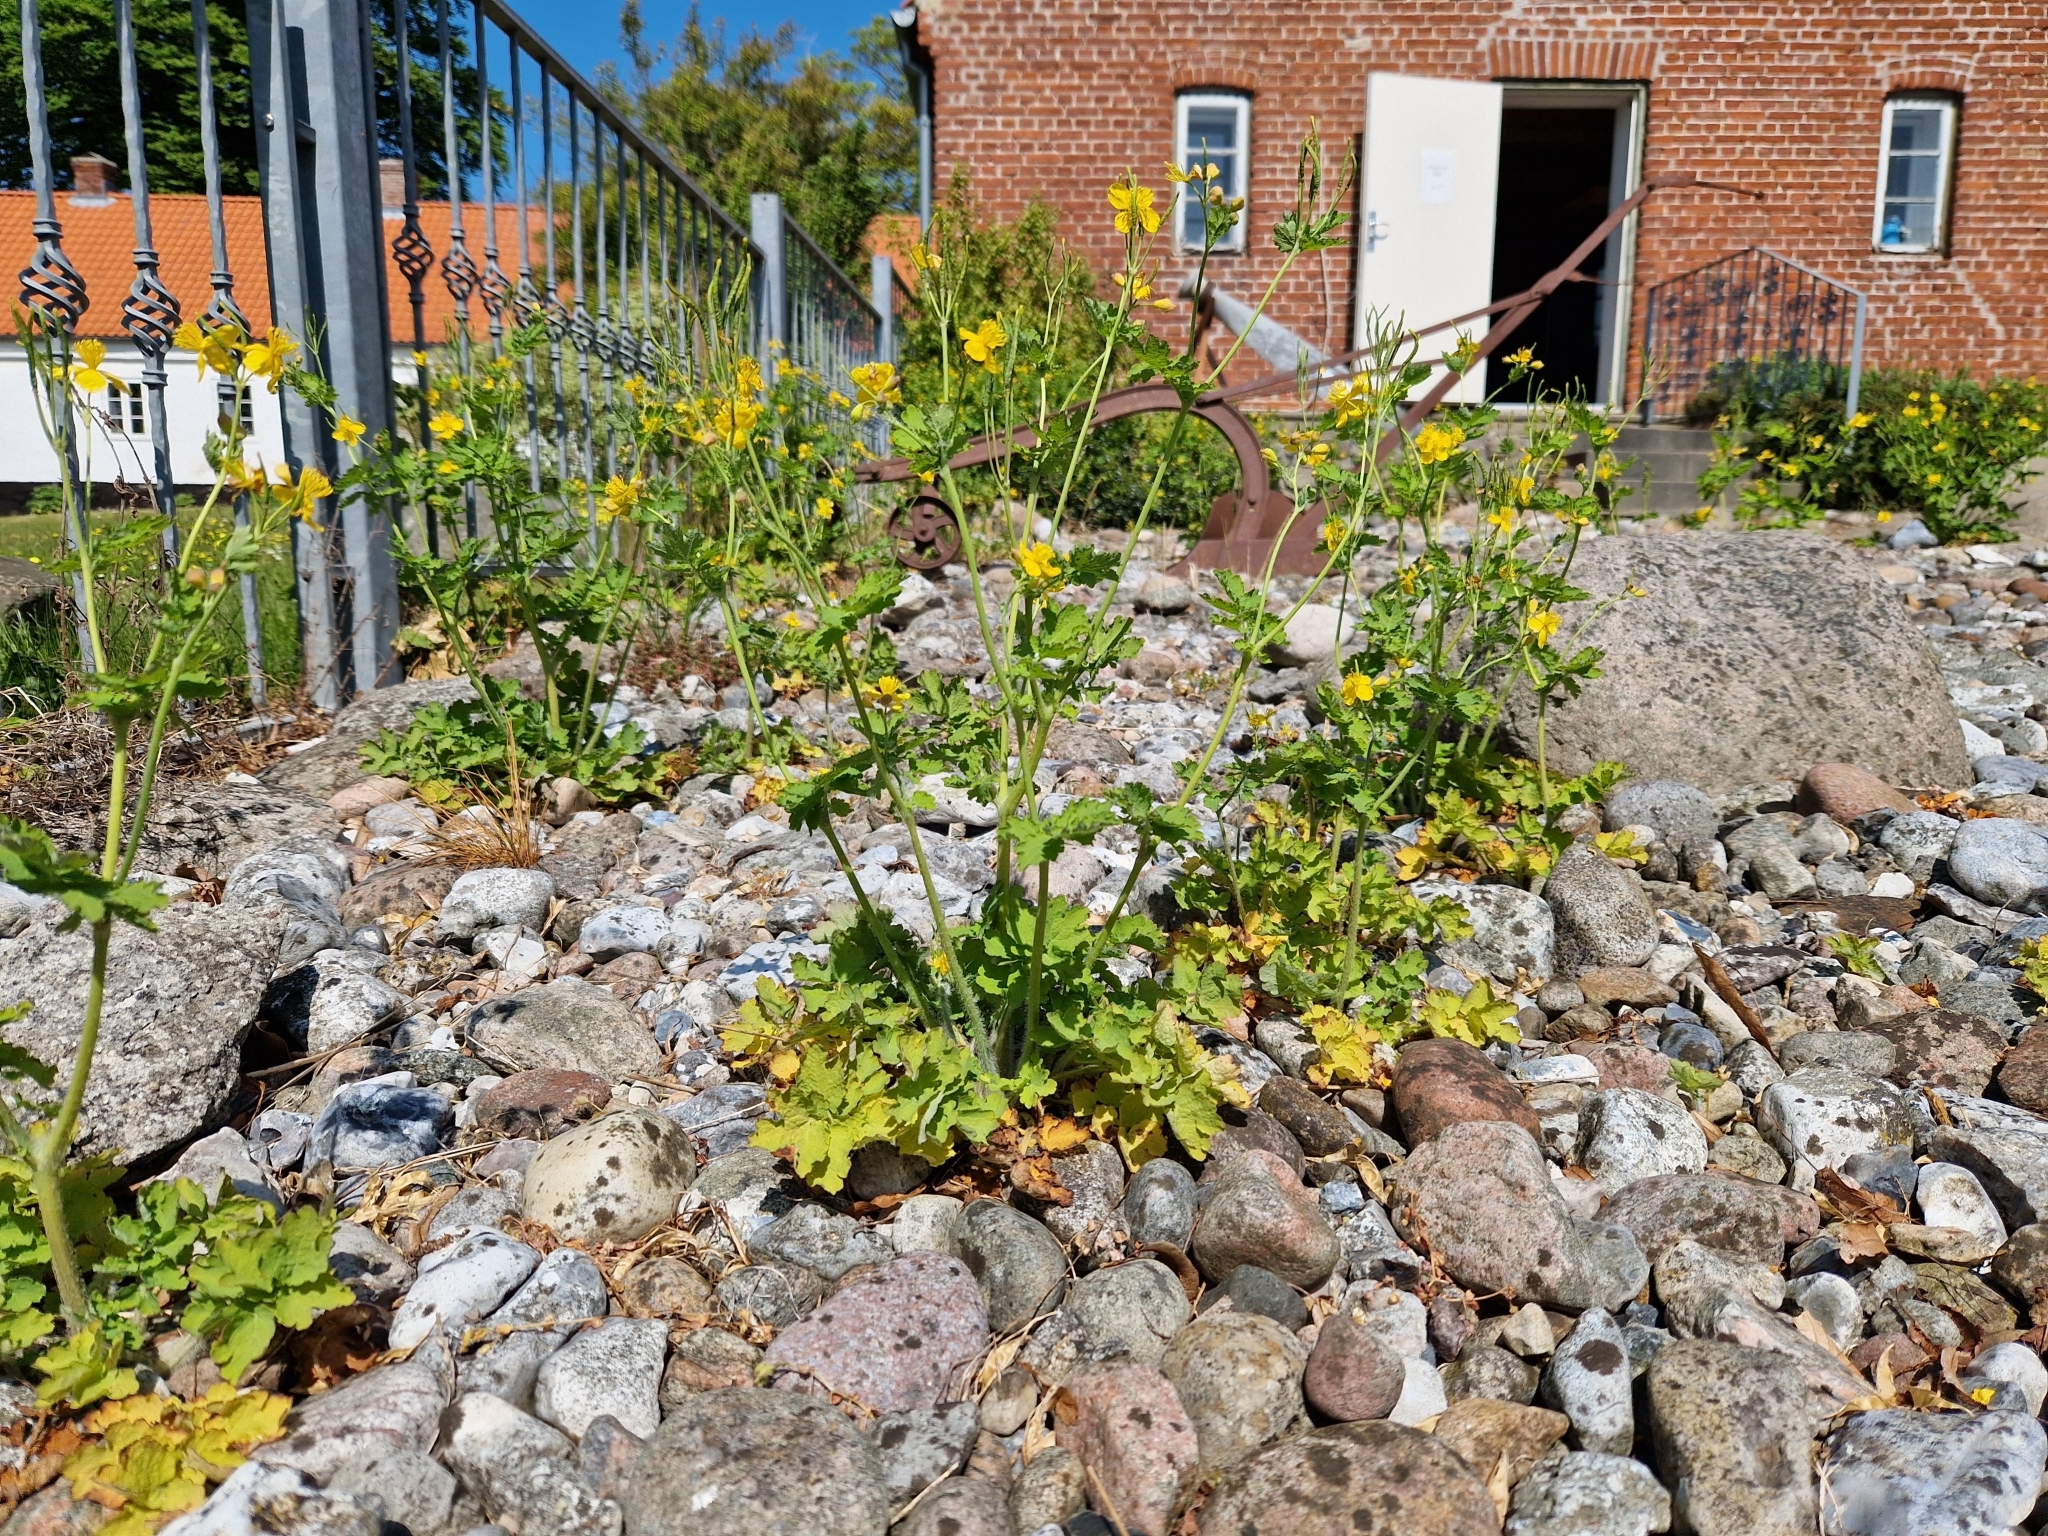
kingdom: Plantae
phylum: Tracheophyta
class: Magnoliopsida
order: Ranunculales
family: Papaveraceae
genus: Chelidonium
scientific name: Chelidonium majus
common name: Greater celandine
